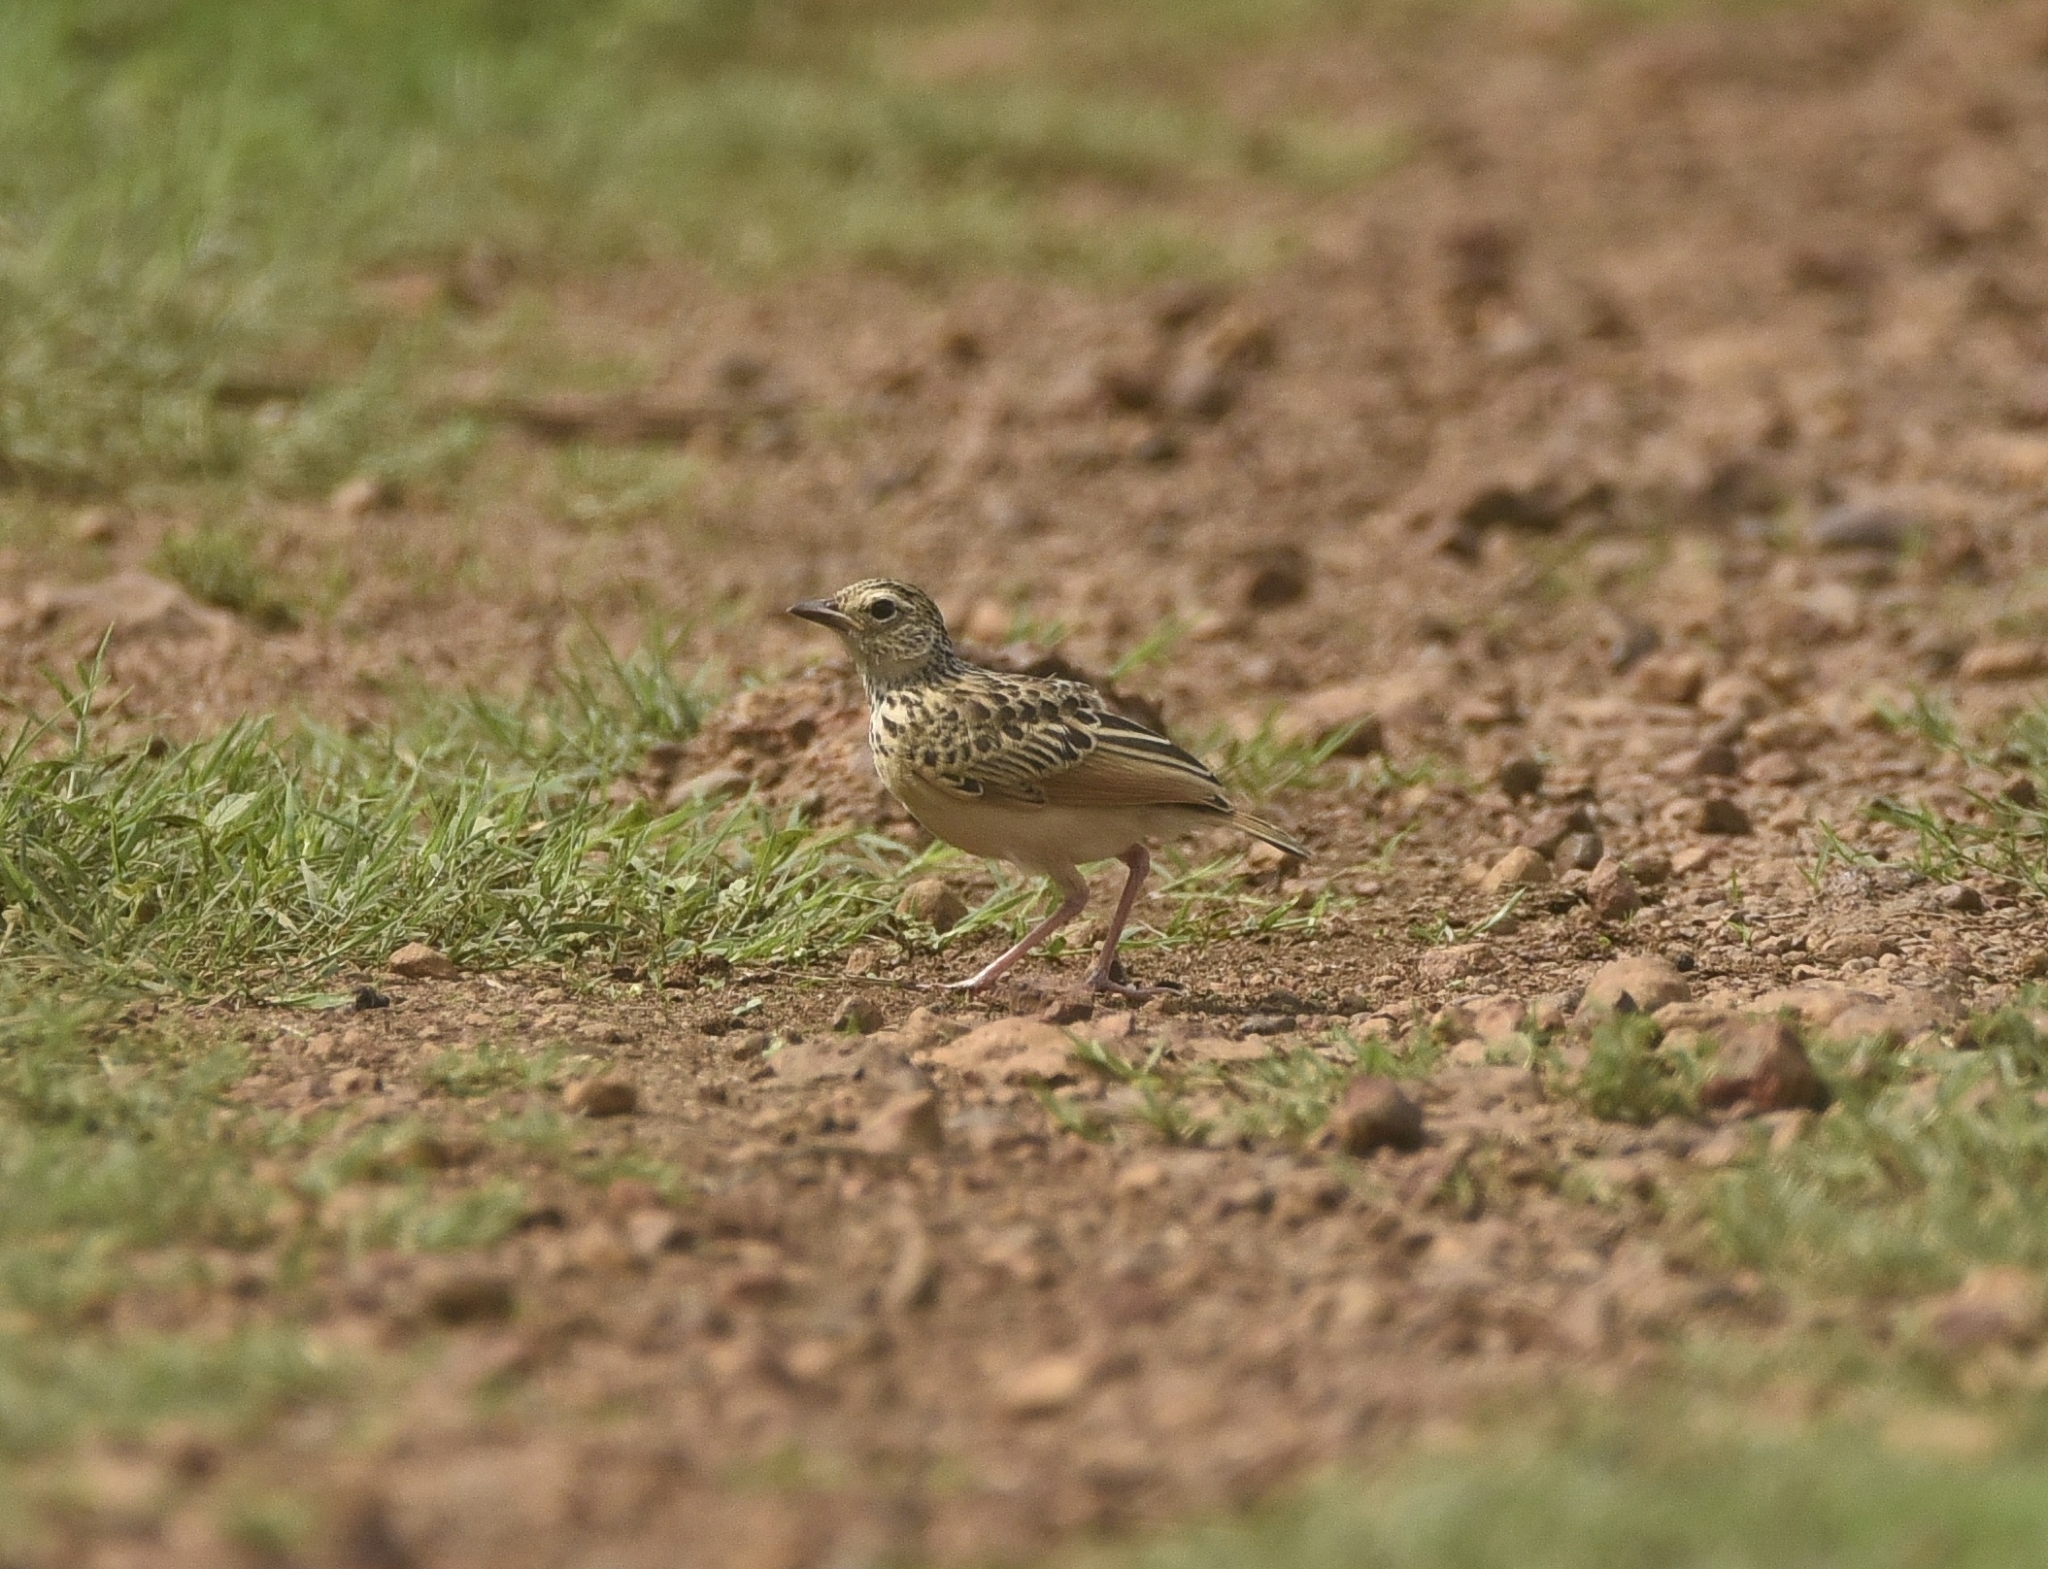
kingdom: Animalia
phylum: Chordata
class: Aves
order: Passeriformes
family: Alaudidae
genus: Mirafra
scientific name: Mirafra affinis
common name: Jerdon's bushlark
